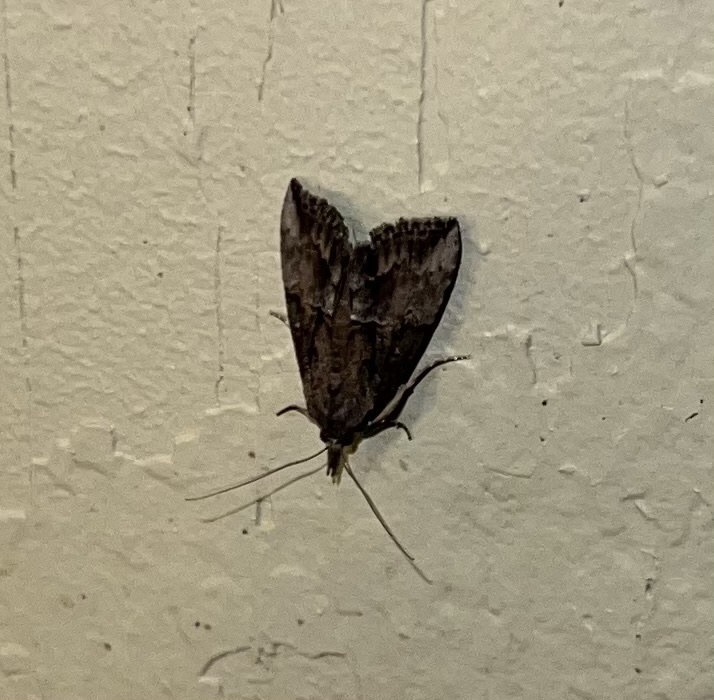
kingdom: Animalia
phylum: Arthropoda
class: Insecta
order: Lepidoptera
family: Erebidae
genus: Hypena
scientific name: Hypena scabra
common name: Green cloverworm
